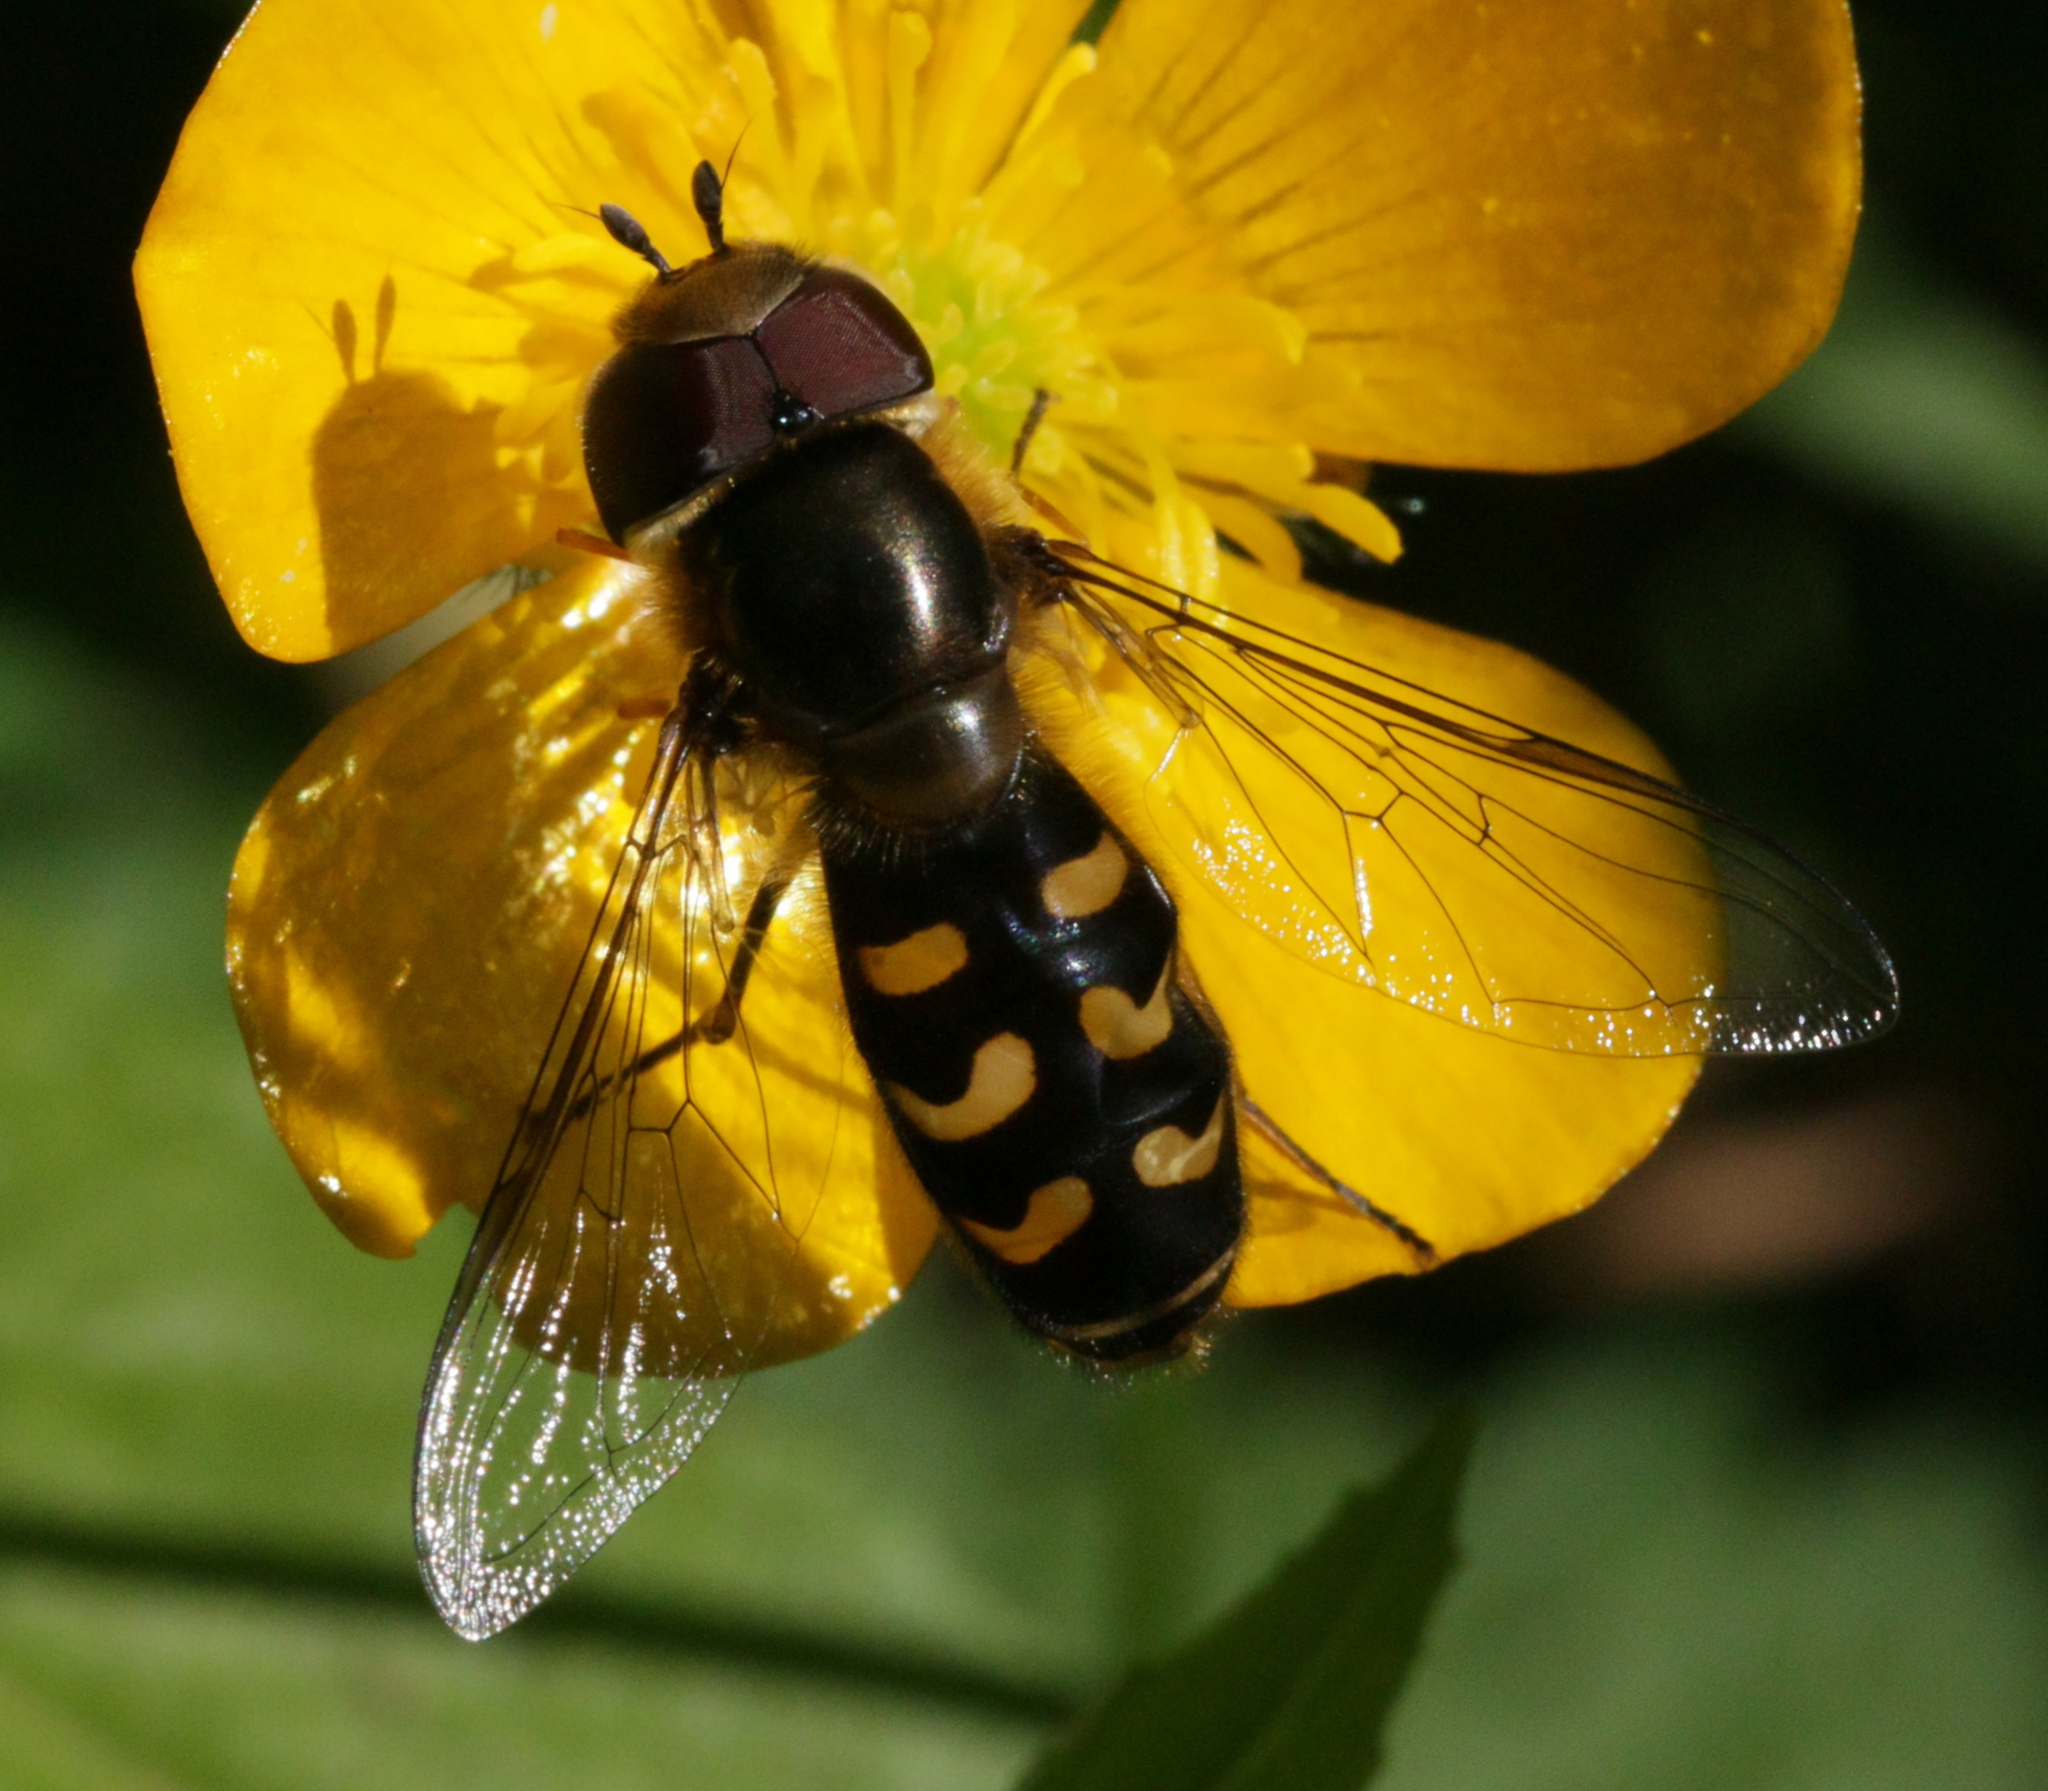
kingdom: Animalia
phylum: Arthropoda
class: Insecta
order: Diptera
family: Syrphidae
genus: Scaeva
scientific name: Scaeva selenitica
